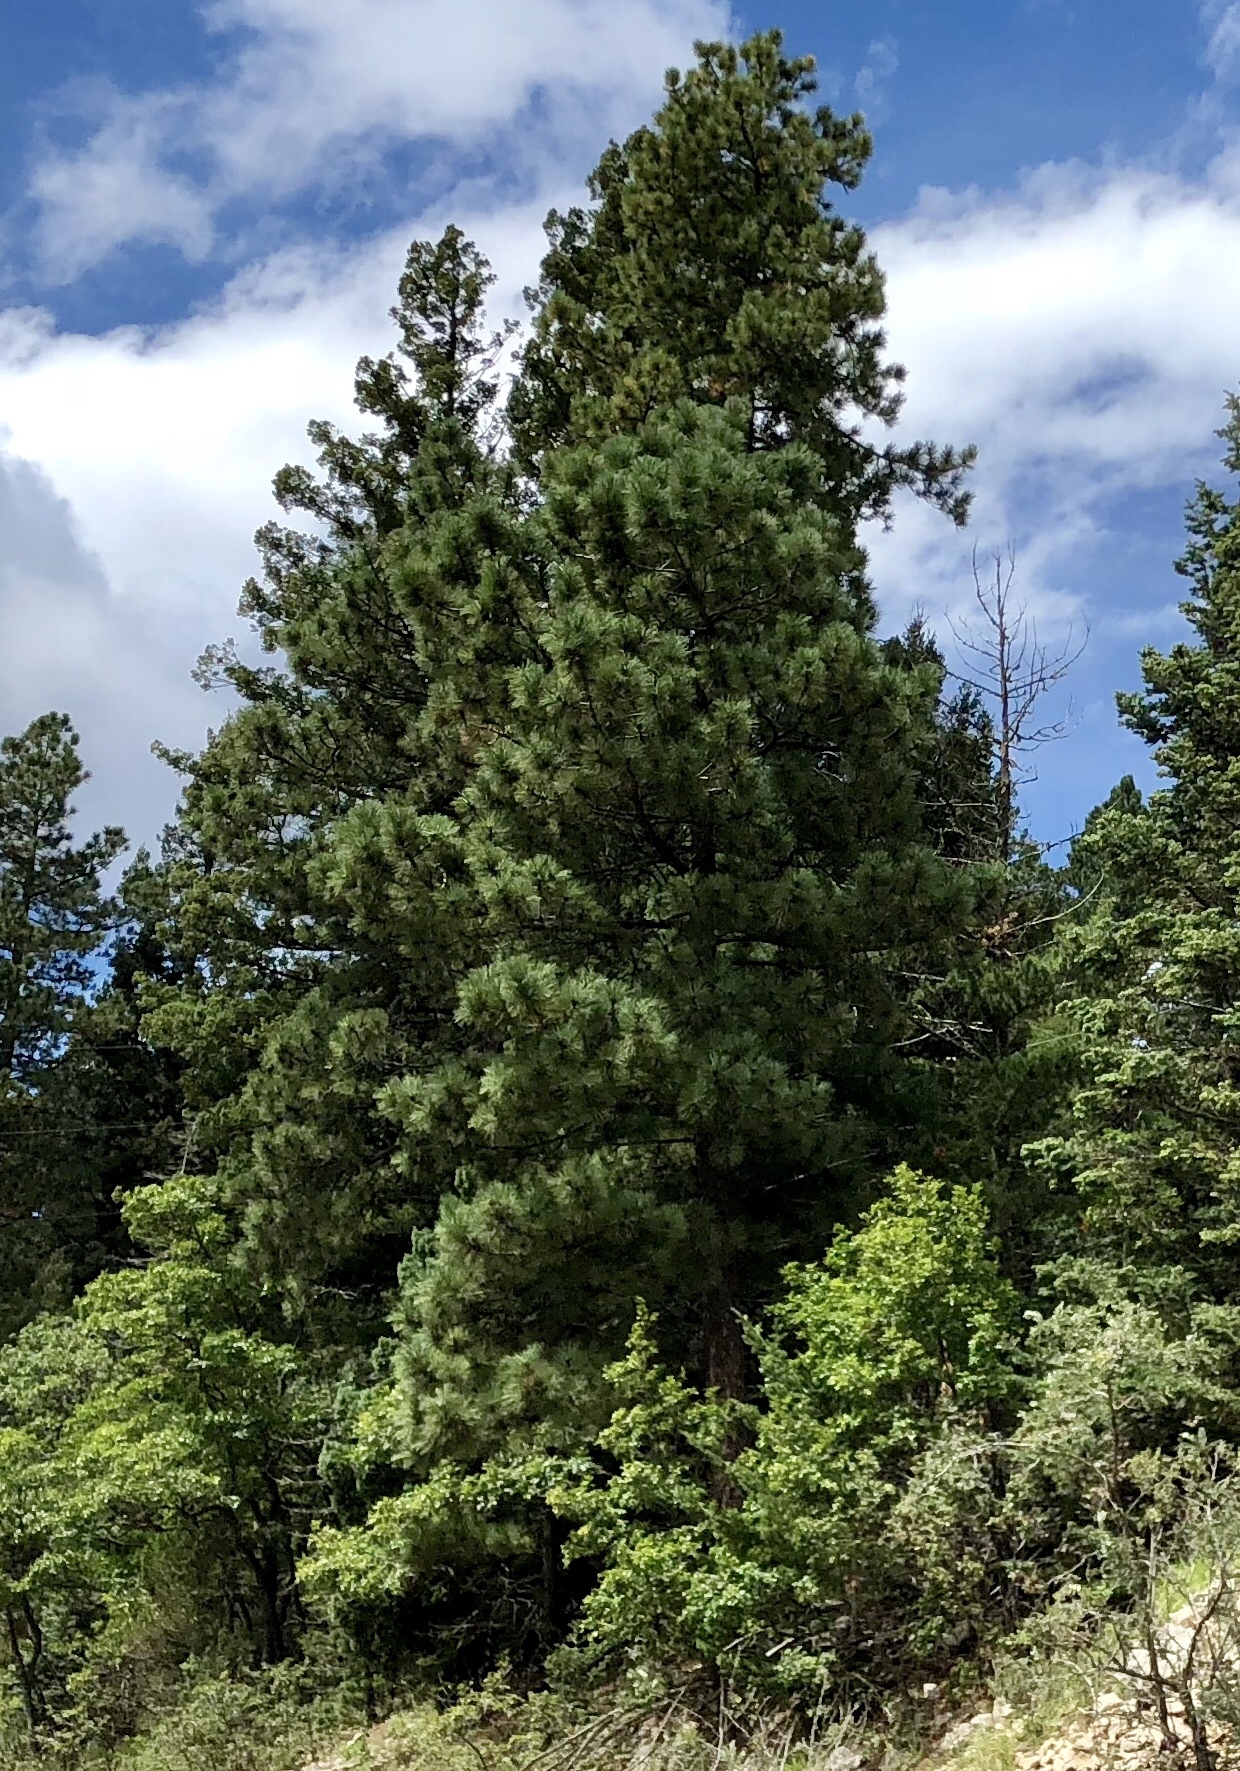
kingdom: Plantae
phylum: Tracheophyta
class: Pinopsida
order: Pinales
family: Pinaceae
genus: Pinus
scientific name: Pinus ponderosa
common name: Western yellow-pine
